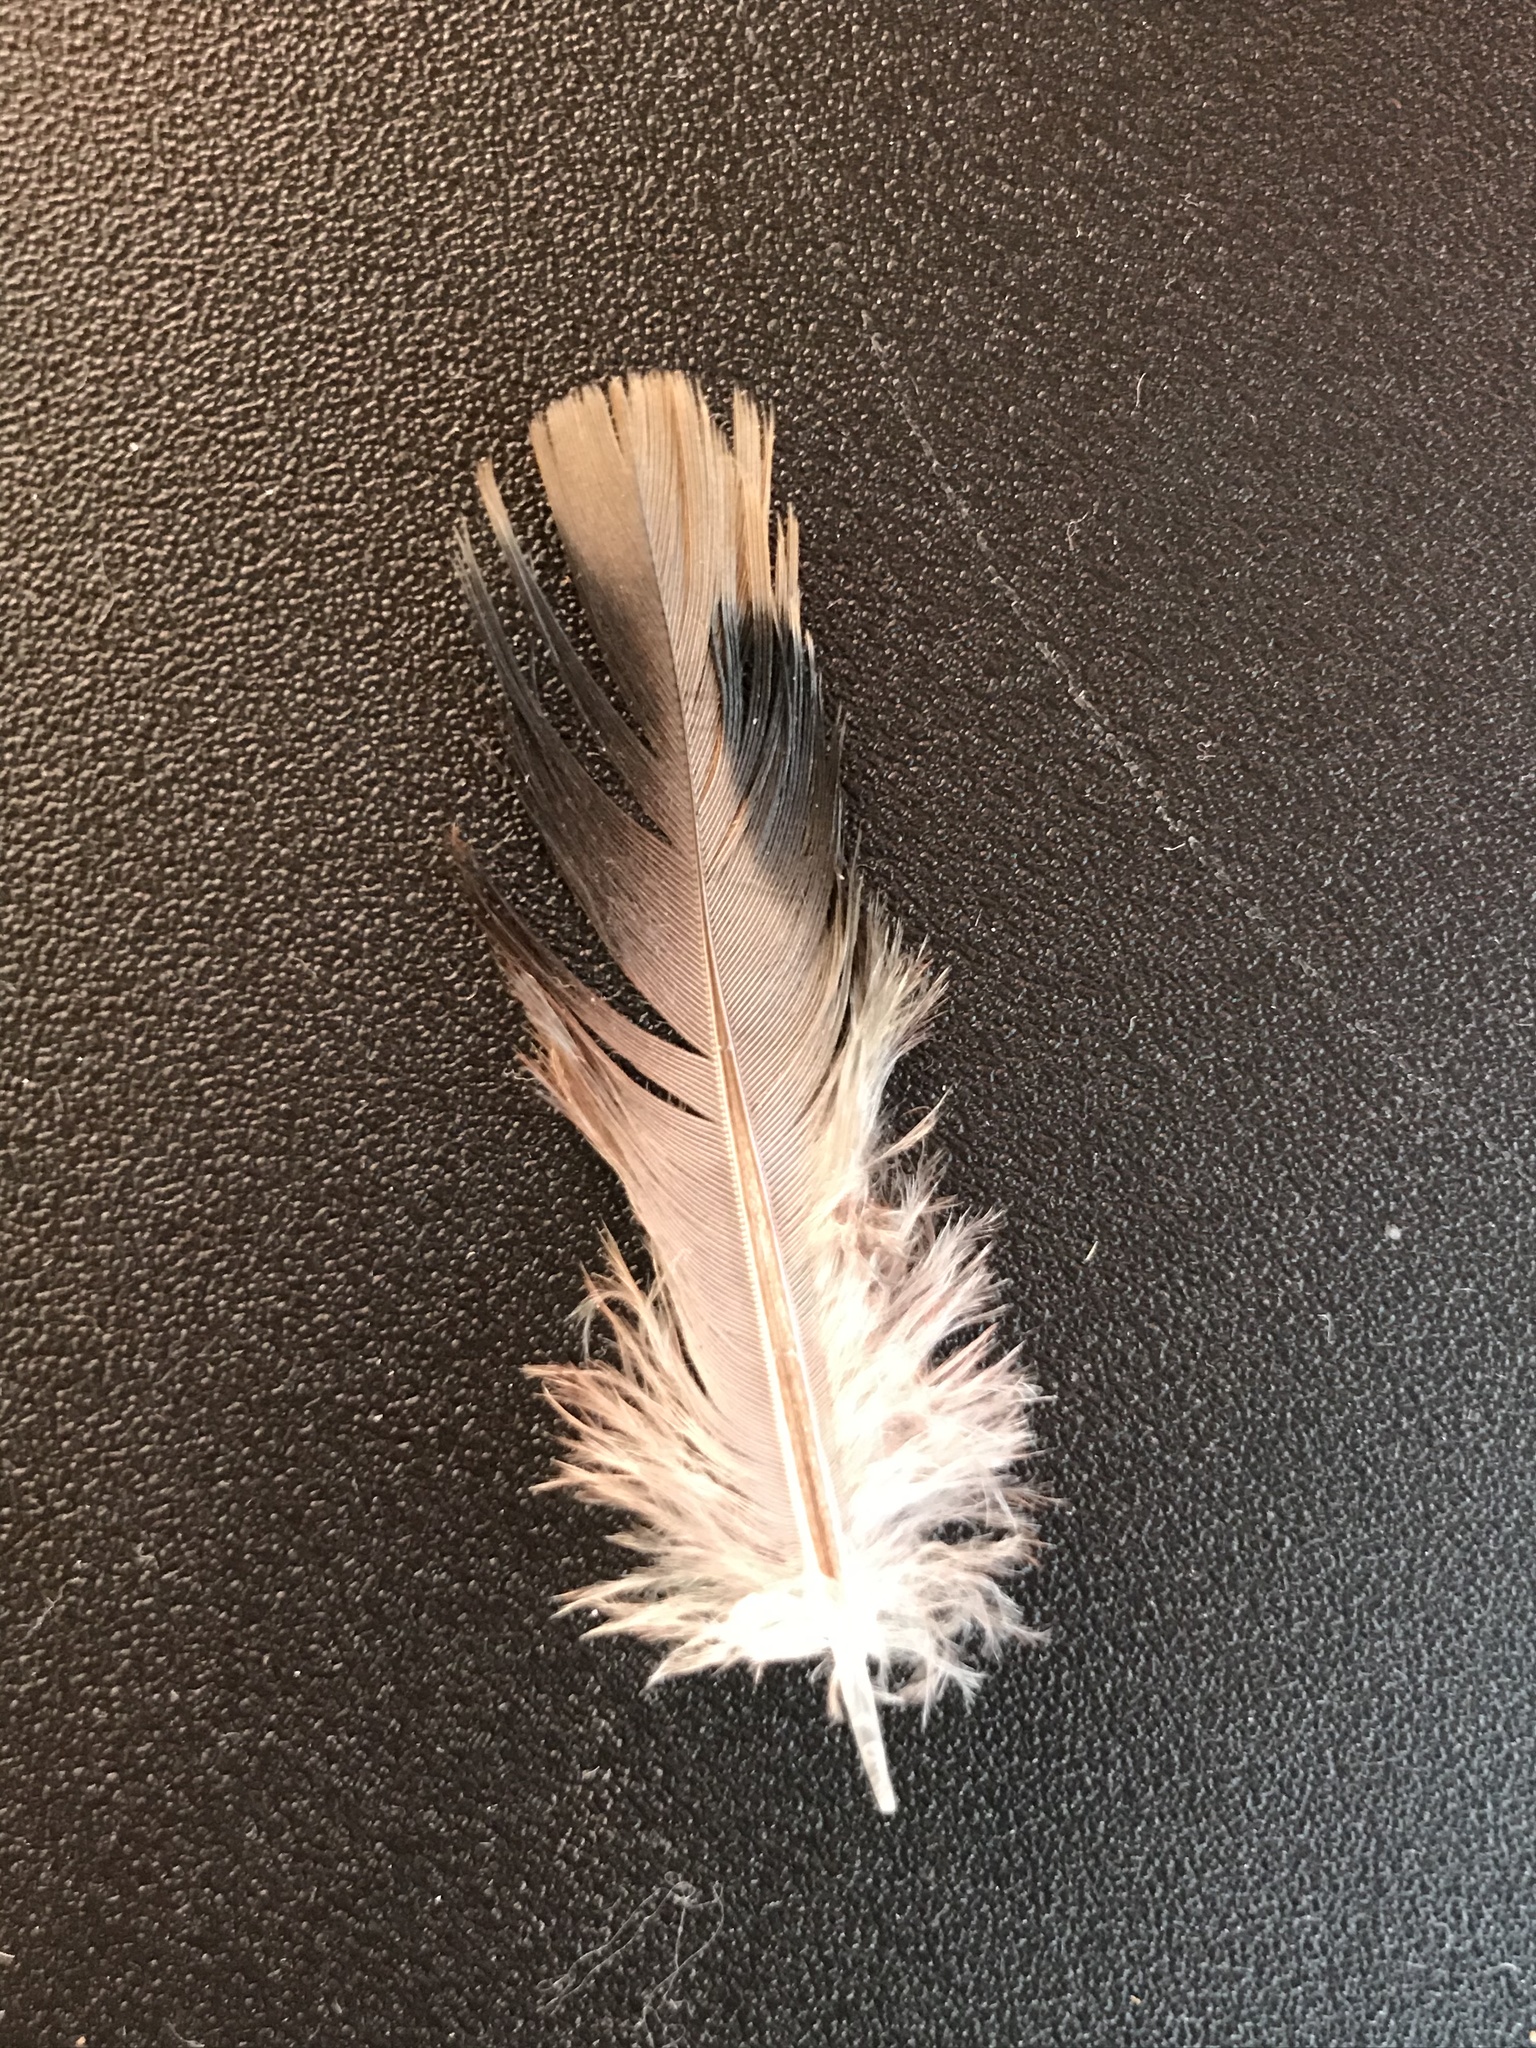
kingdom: Animalia
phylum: Chordata
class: Aves
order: Columbiformes
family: Columbidae
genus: Zenaida
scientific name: Zenaida macroura
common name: Mourning dove
